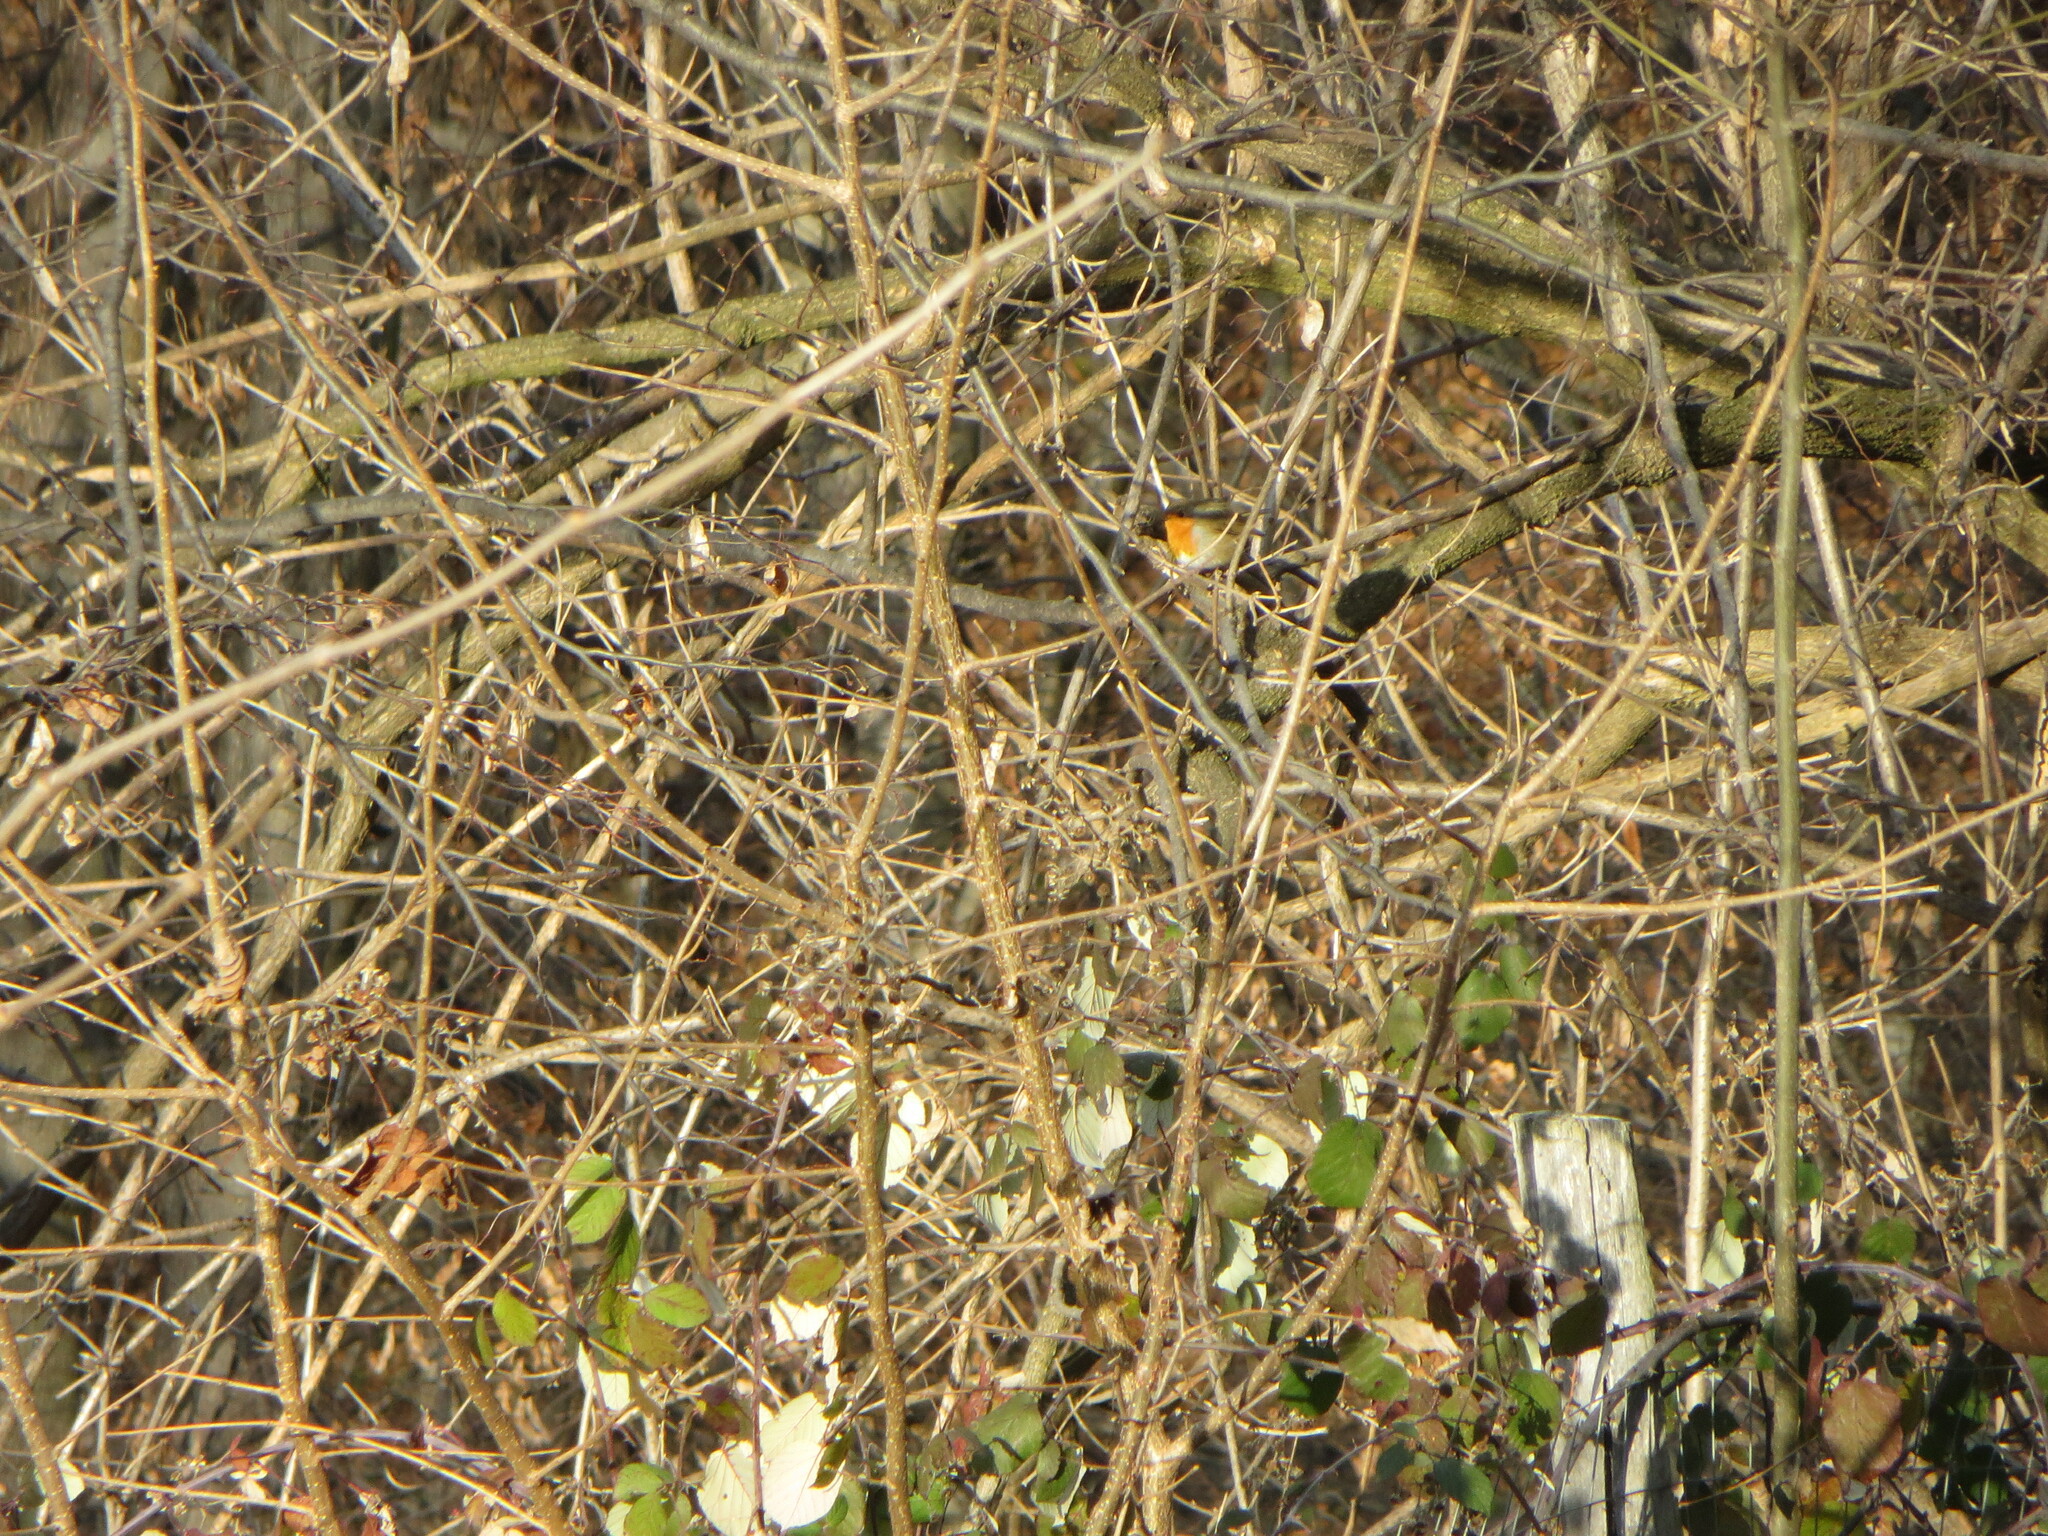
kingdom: Animalia
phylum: Chordata
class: Aves
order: Passeriformes
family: Muscicapidae
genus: Erithacus
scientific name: Erithacus rubecula
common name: European robin
